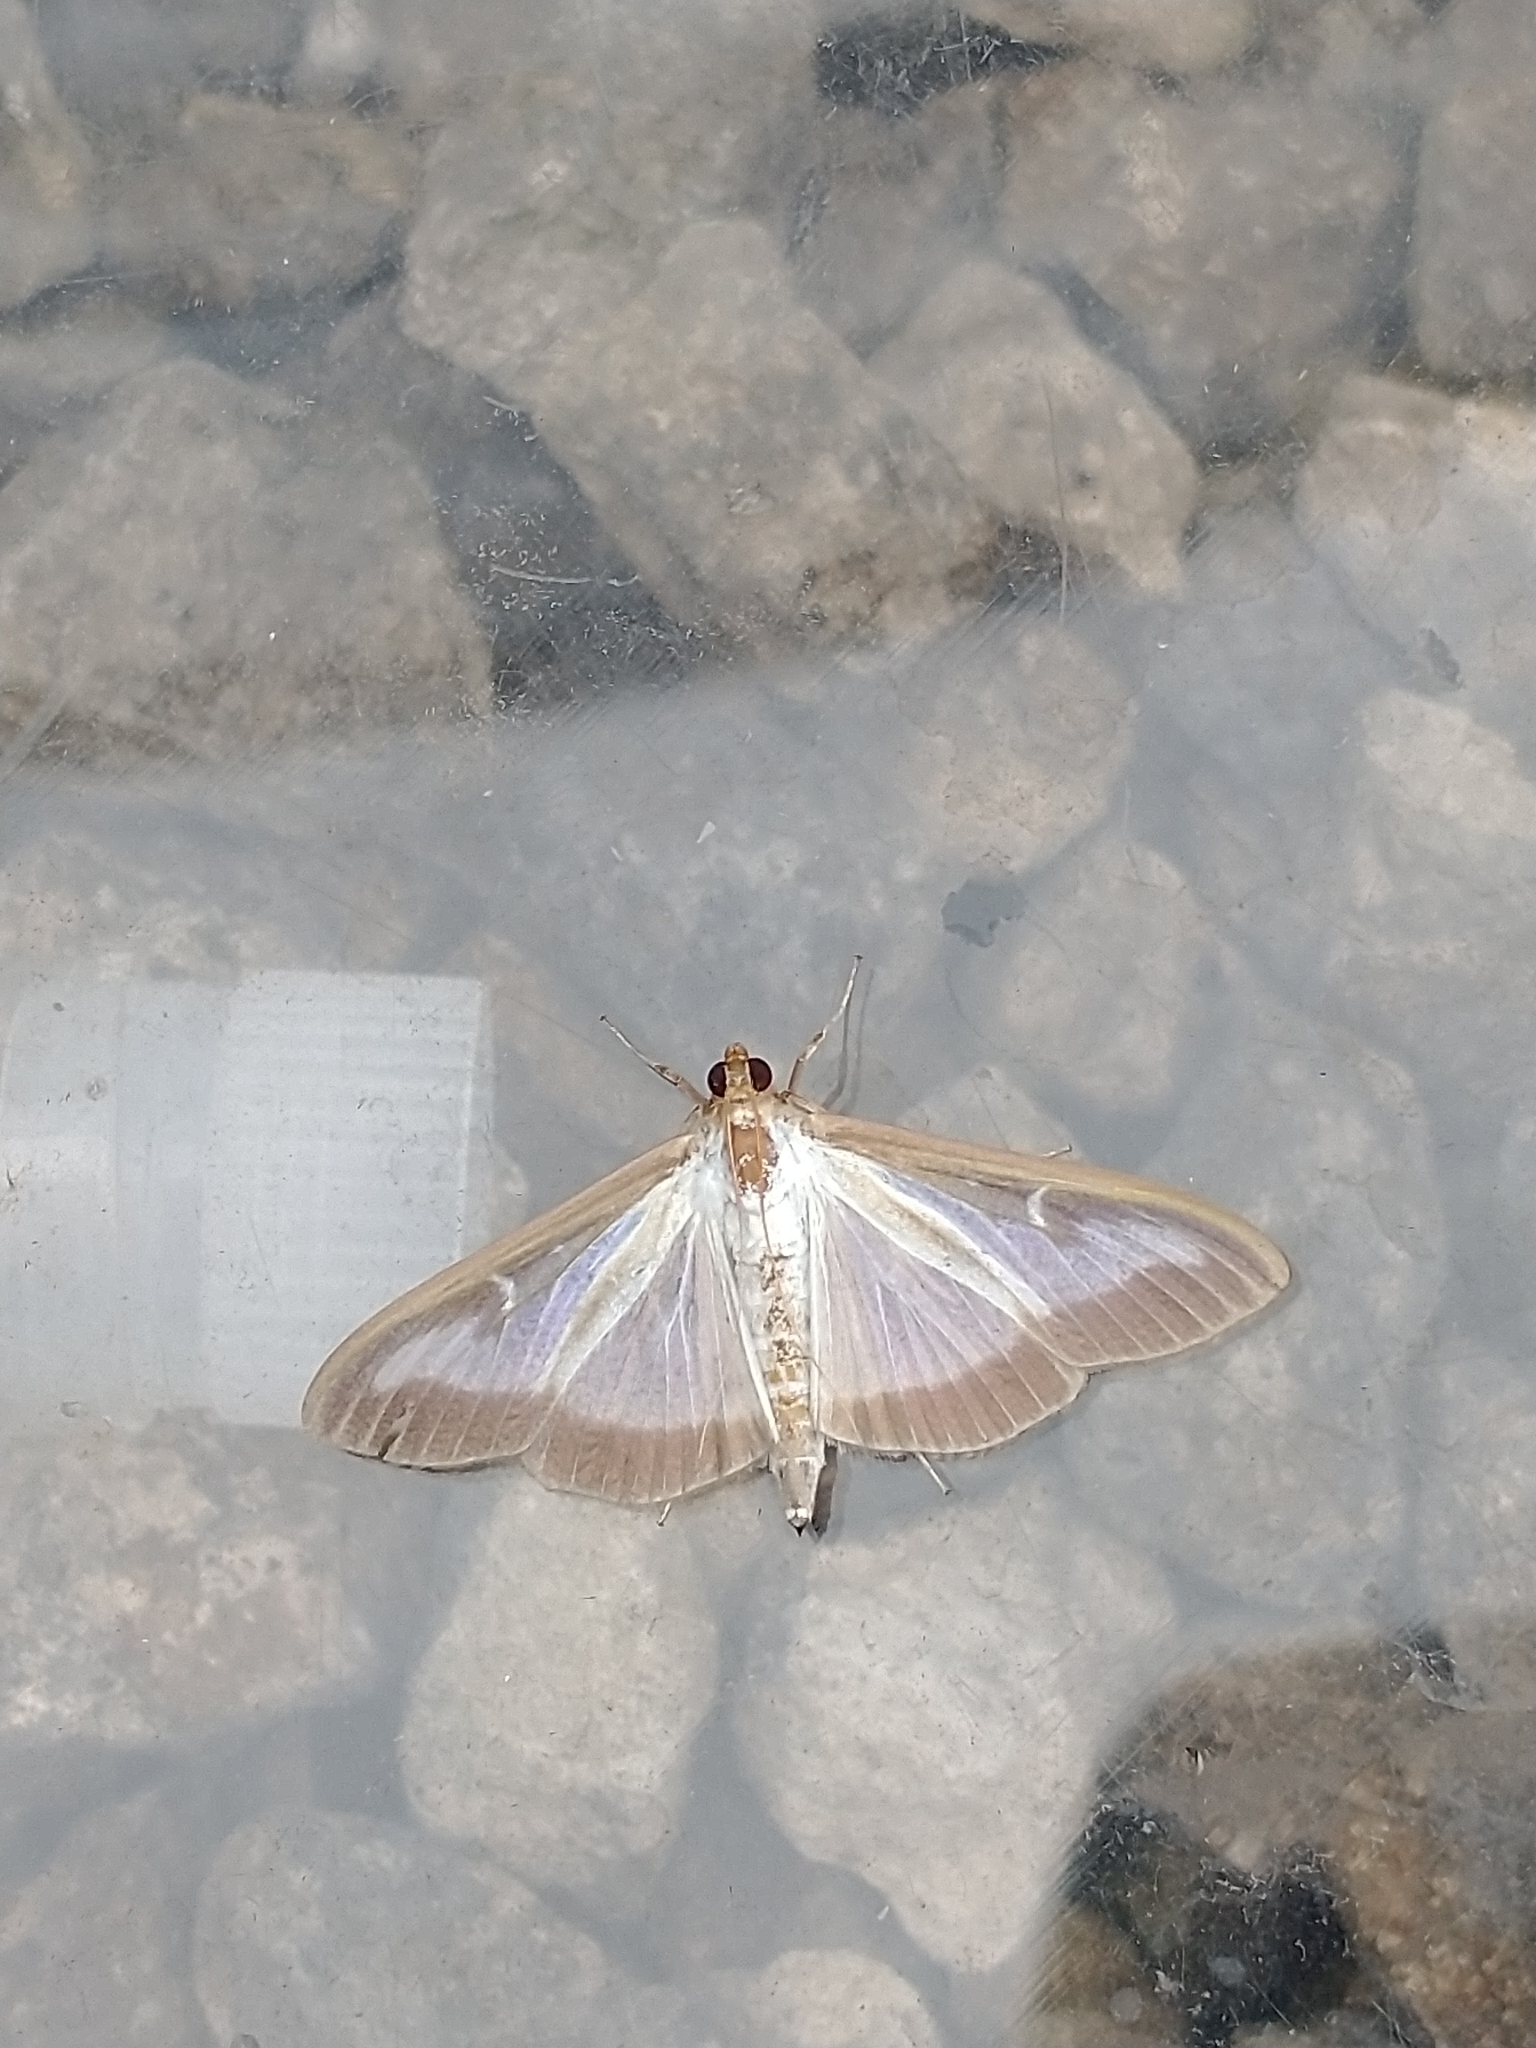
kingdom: Animalia
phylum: Arthropoda
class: Insecta
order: Lepidoptera
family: Crambidae
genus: Cydalima
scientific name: Cydalima perspectalis
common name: Box tree moth
